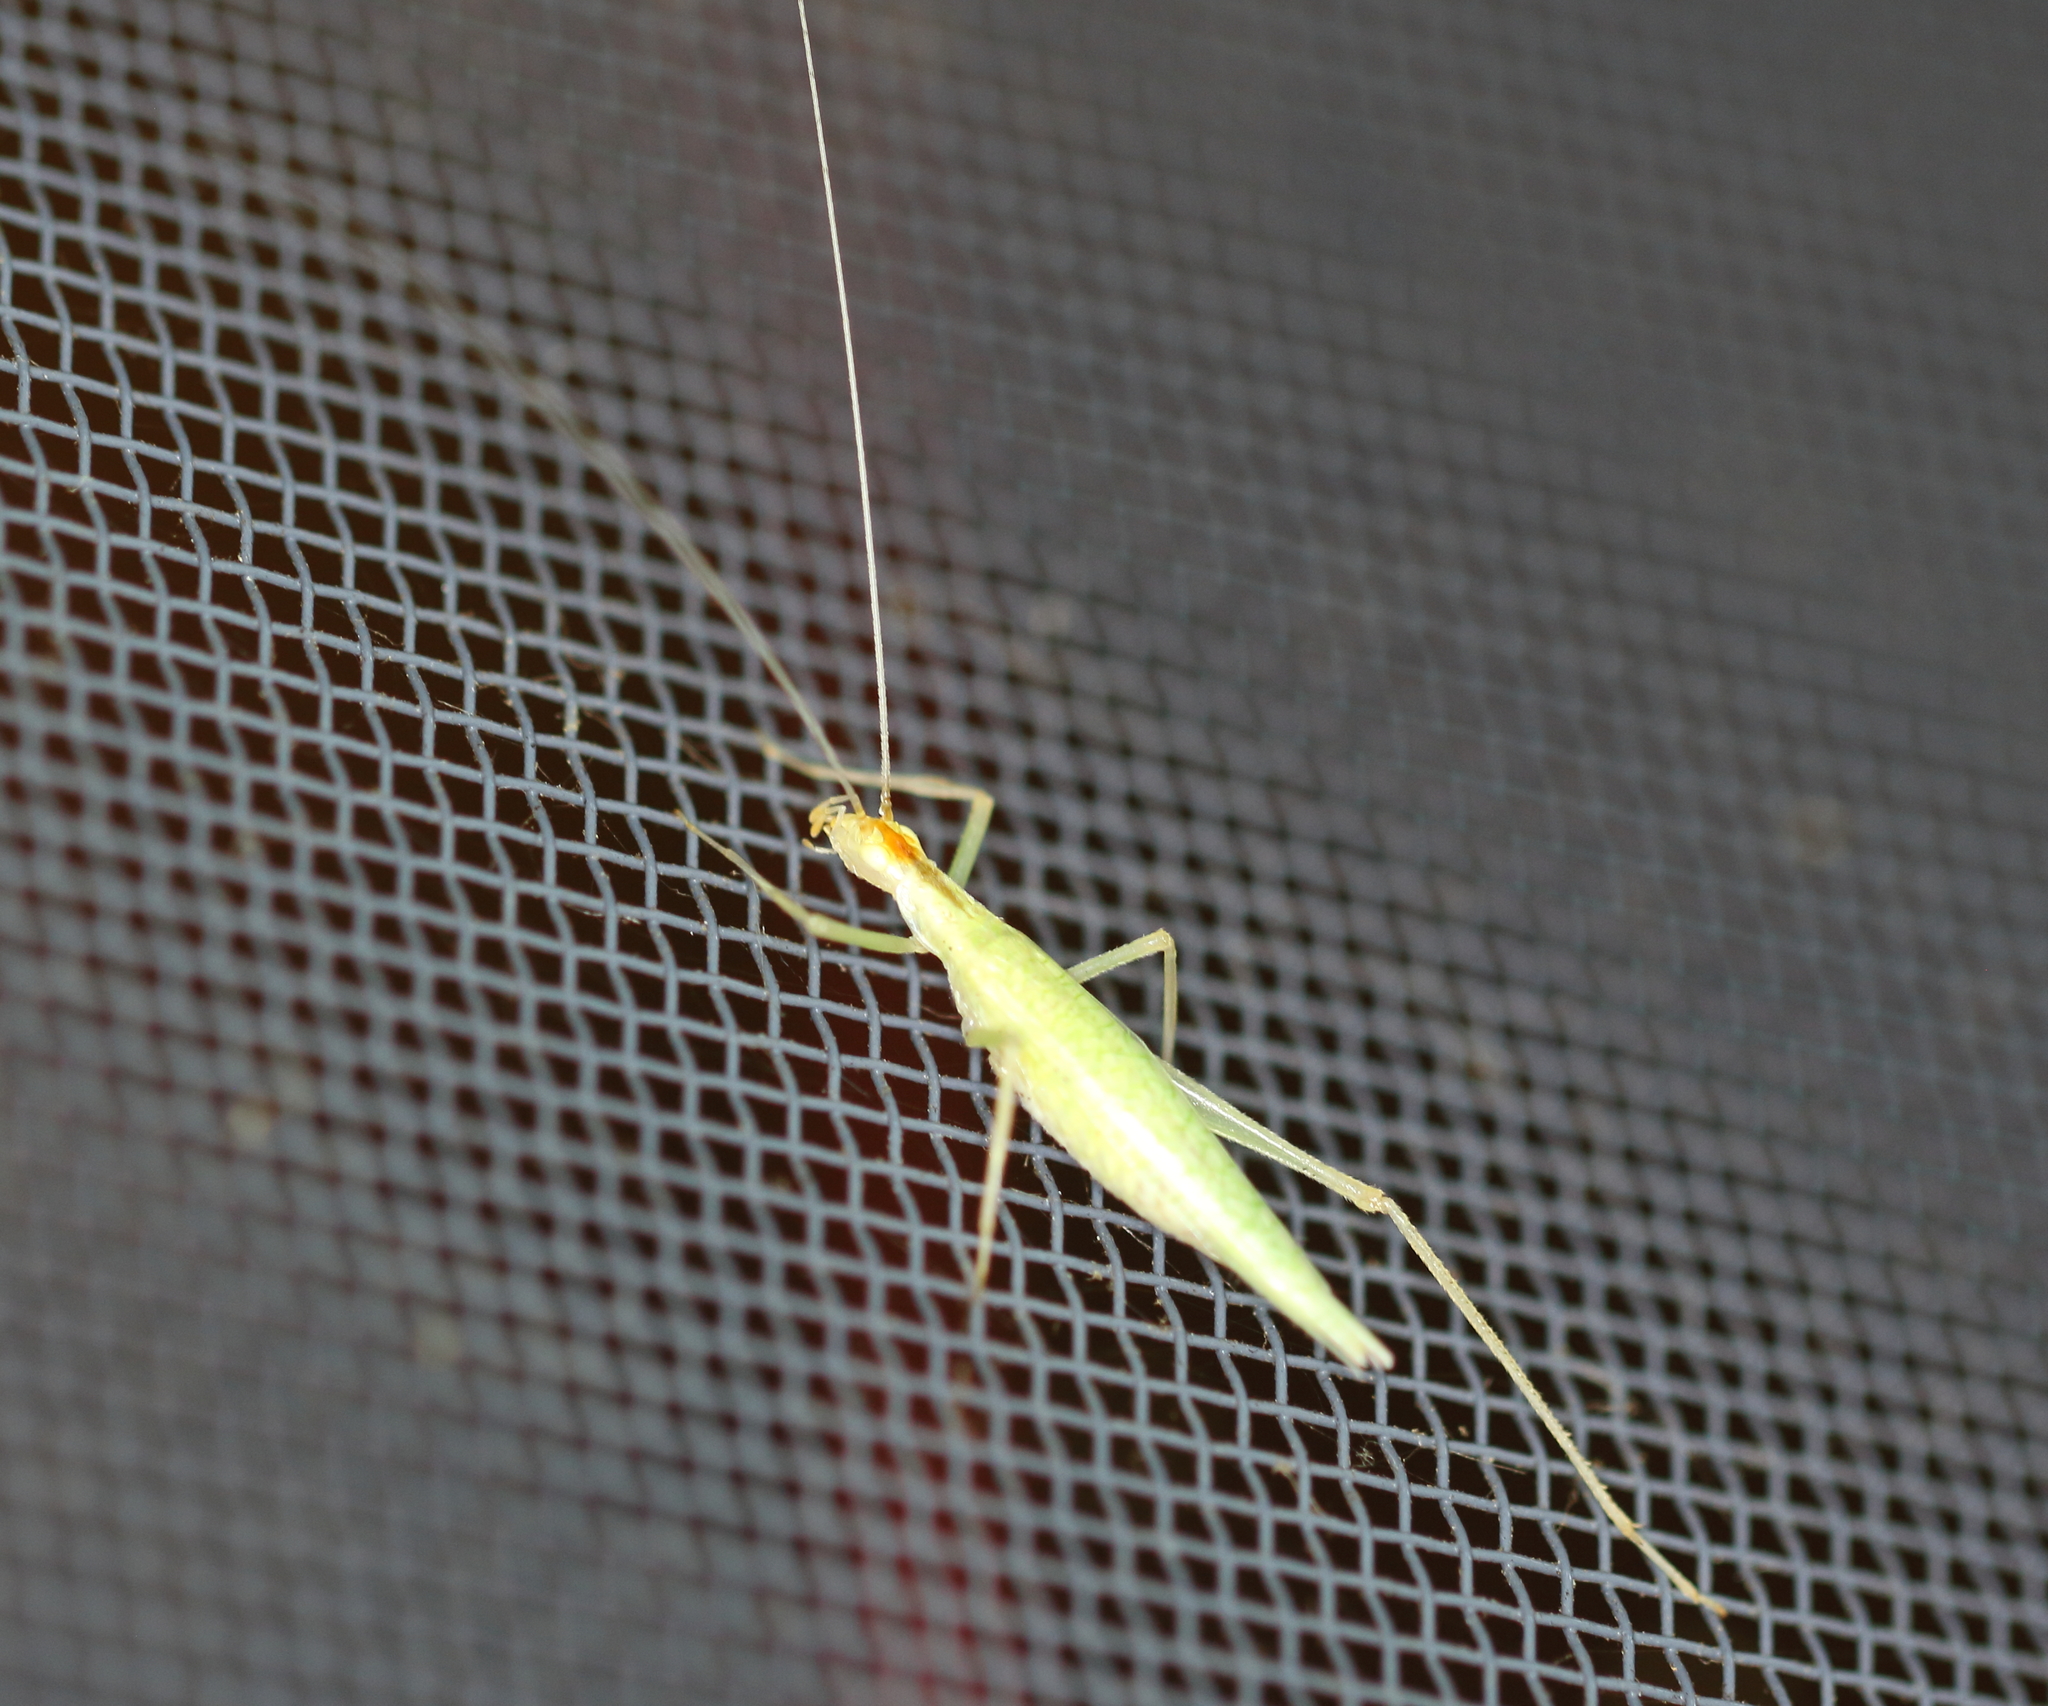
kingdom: Animalia
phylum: Arthropoda
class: Insecta
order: Orthoptera
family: Gryllidae
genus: Oecanthus
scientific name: Oecanthus niveus
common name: Narrow-winged tree cricket
